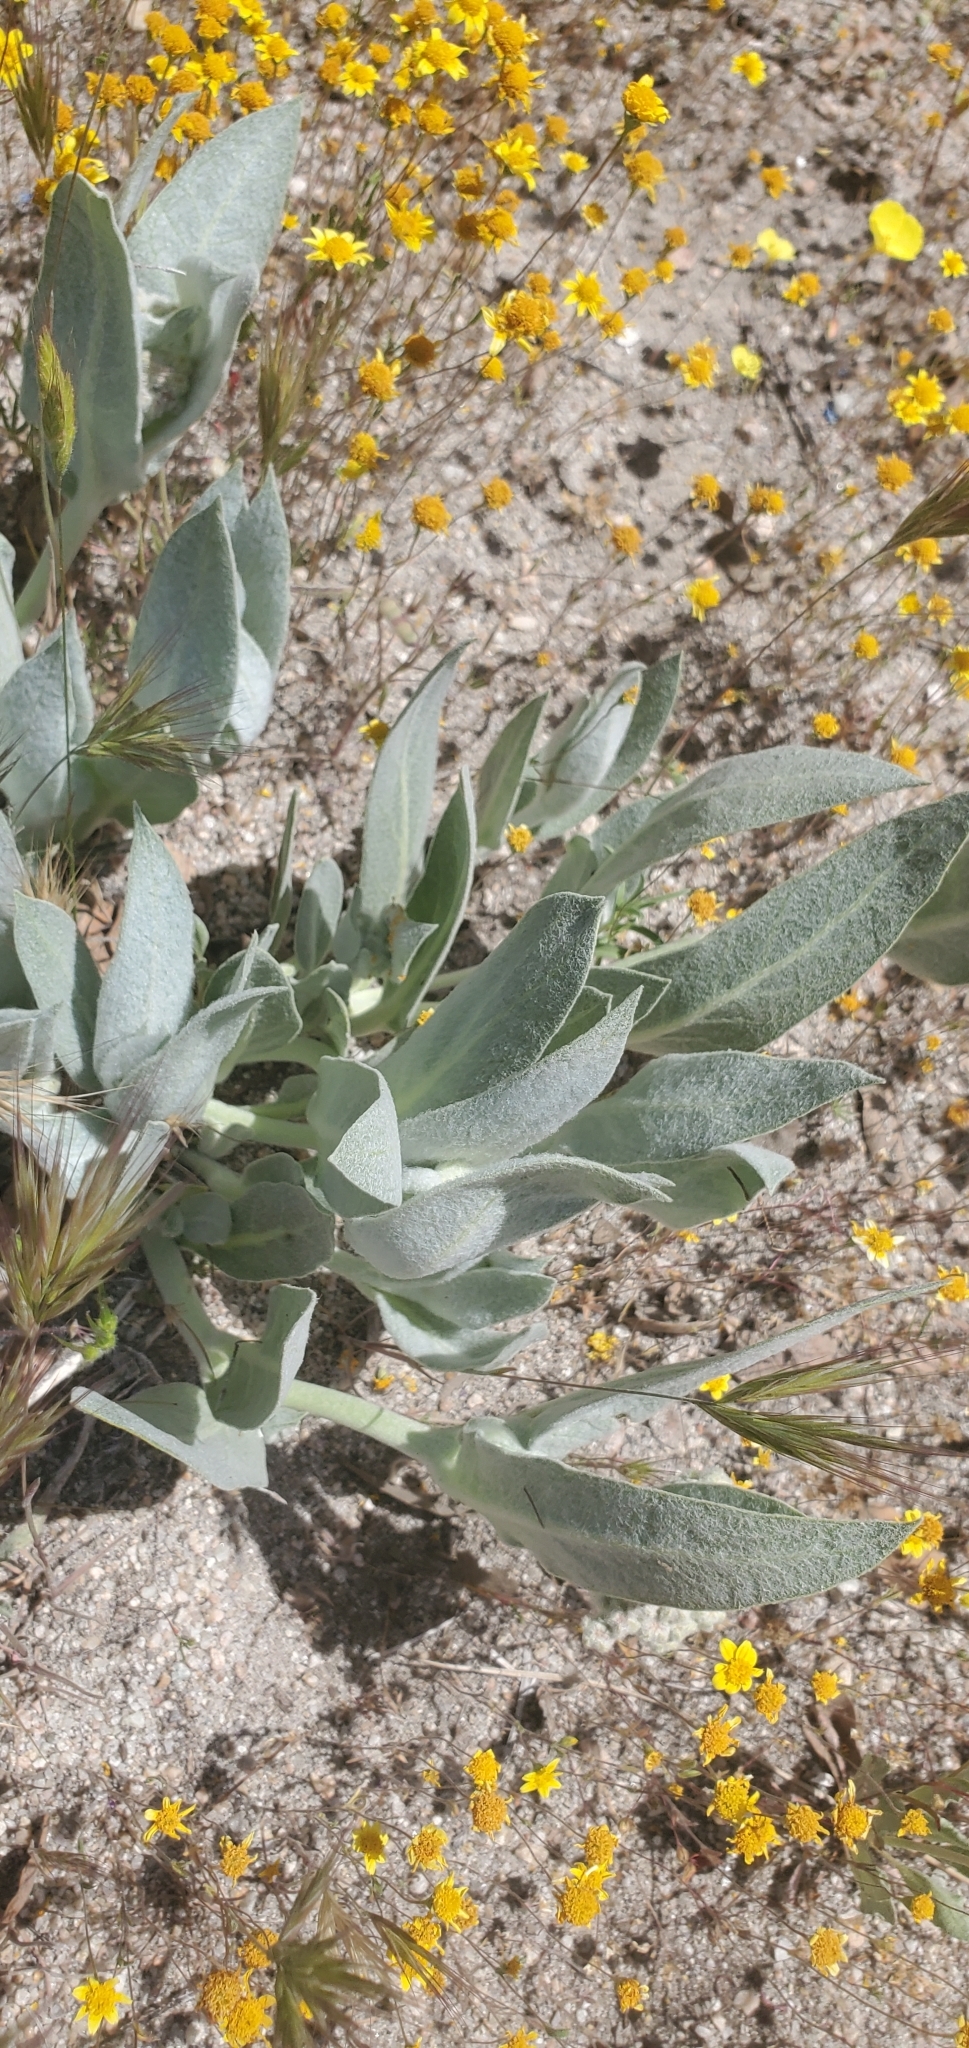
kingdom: Plantae
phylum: Tracheophyta
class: Magnoliopsida
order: Gentianales
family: Apocynaceae
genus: Asclepias
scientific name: Asclepias vestita
